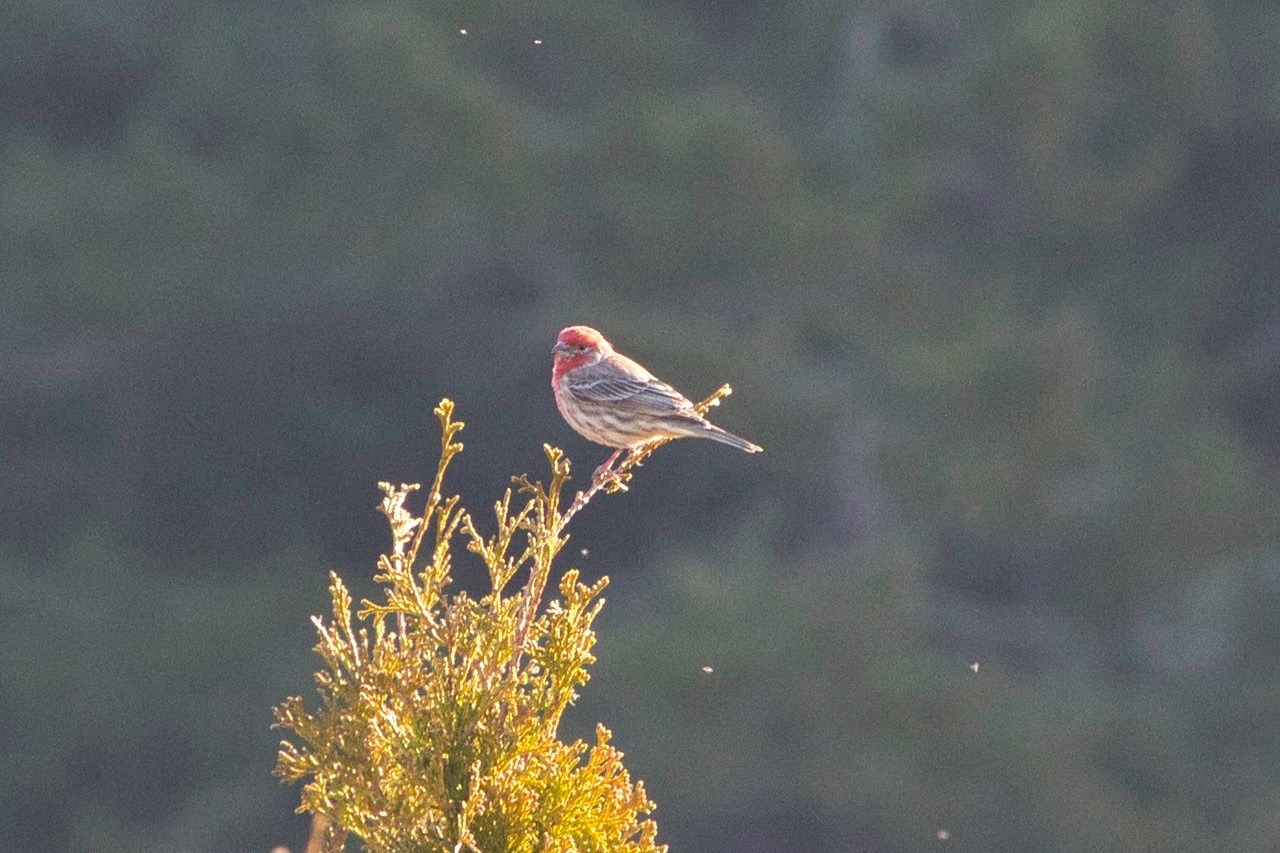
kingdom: Animalia
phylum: Chordata
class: Aves
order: Passeriformes
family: Fringillidae
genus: Haemorhous
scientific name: Haemorhous mexicanus
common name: House finch
